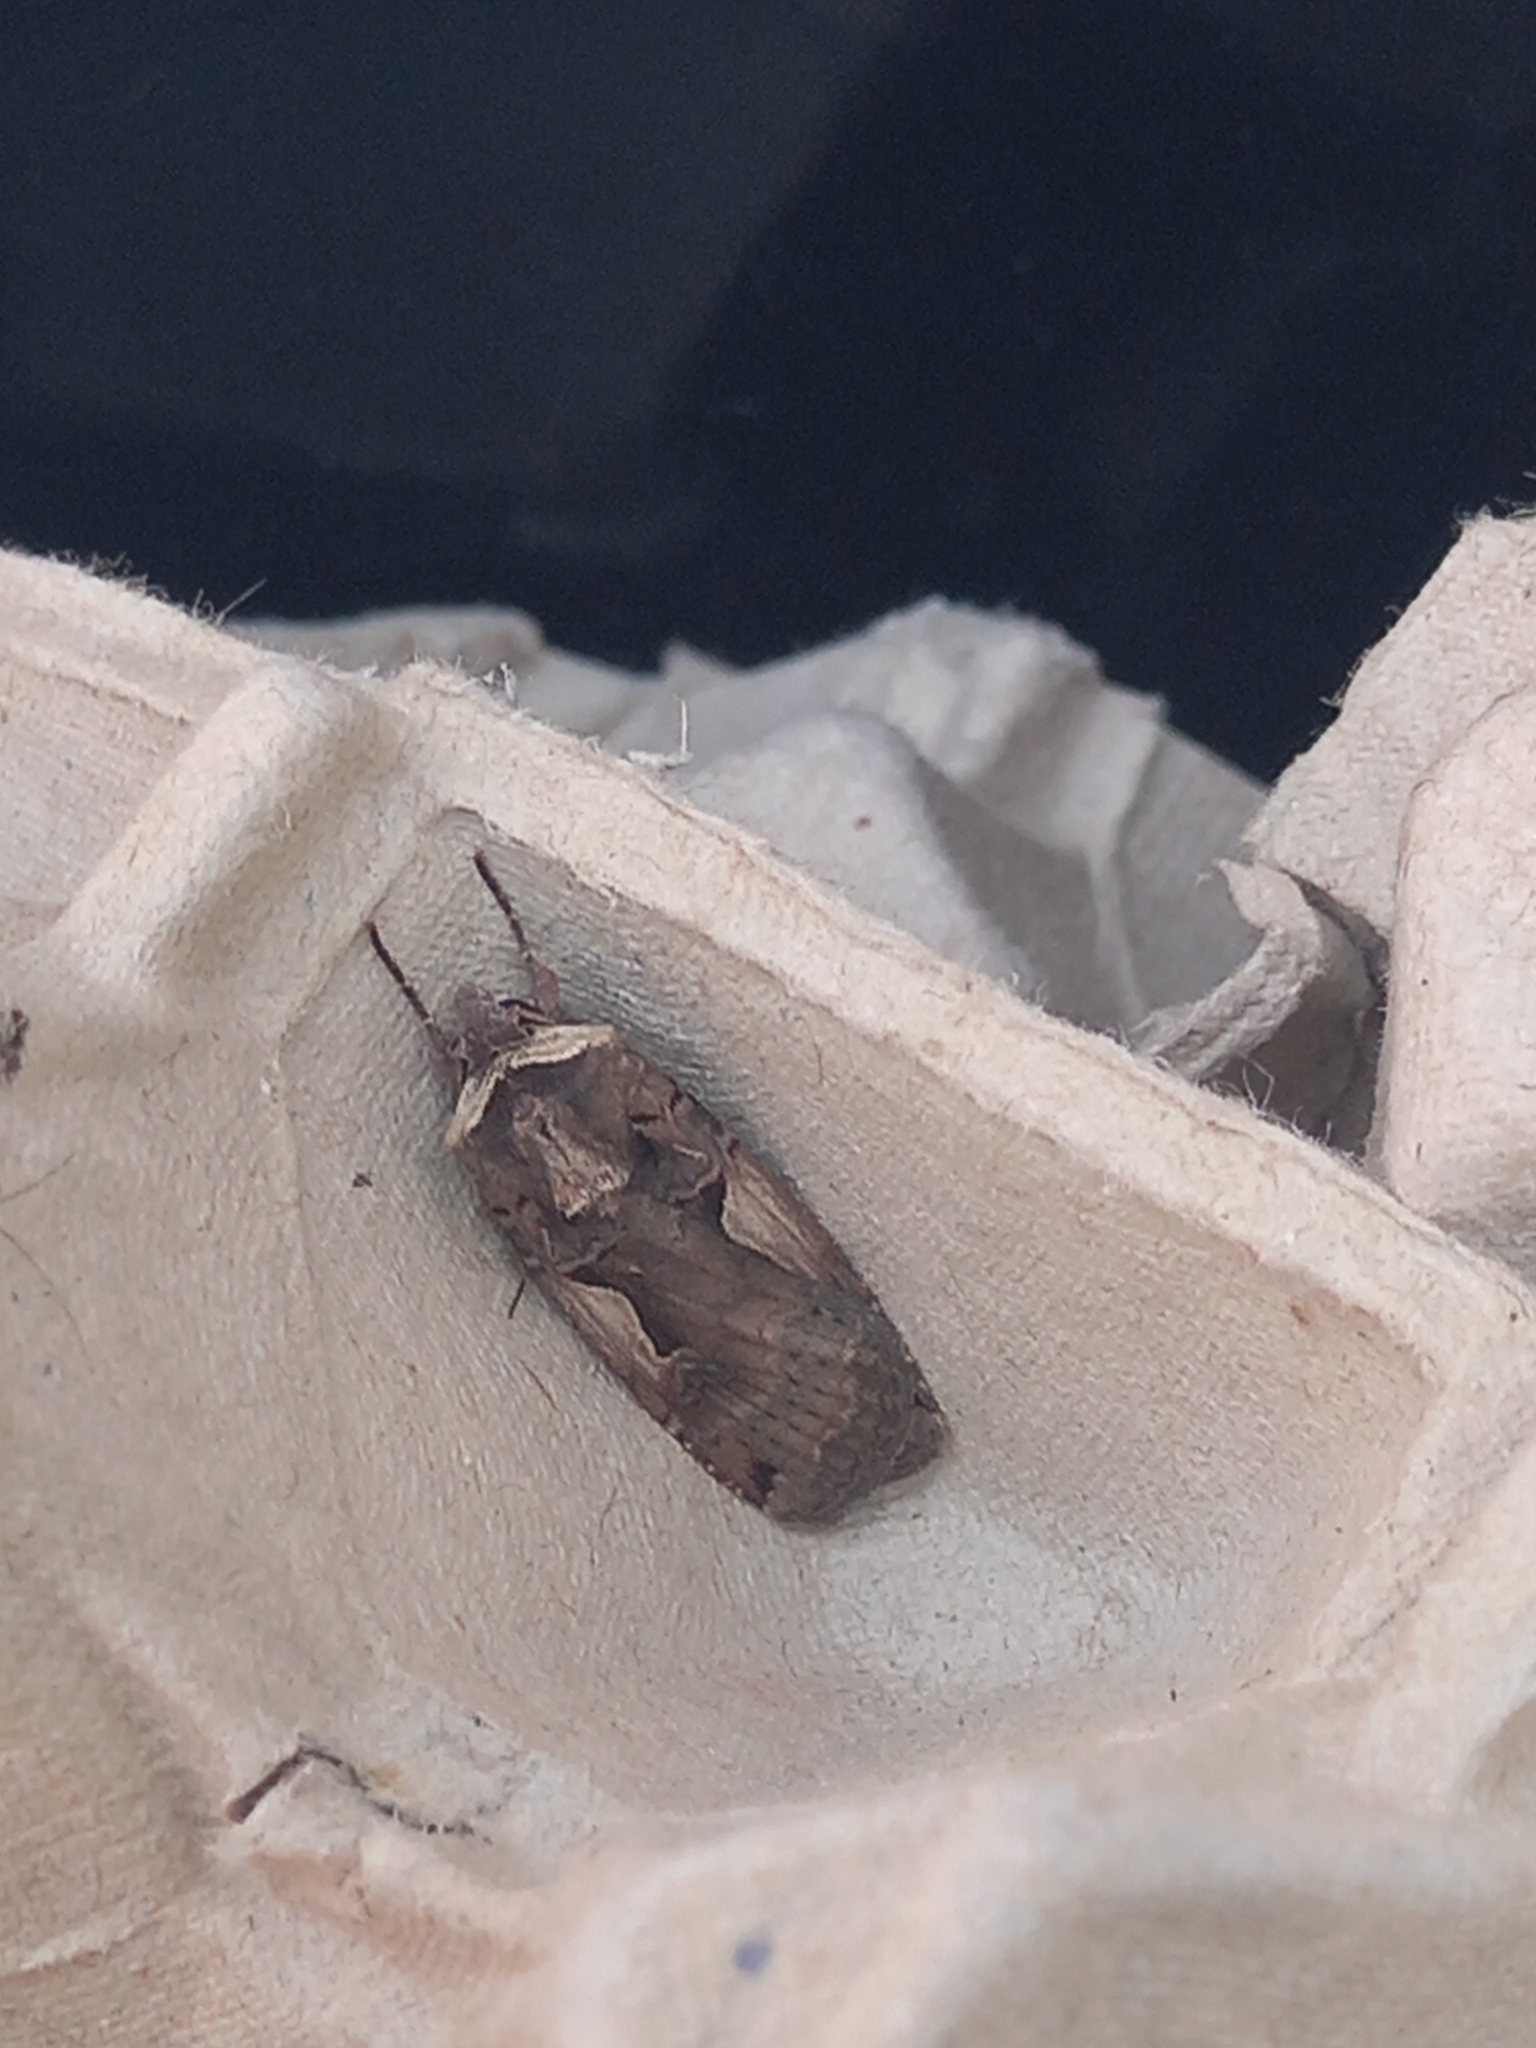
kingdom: Animalia
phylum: Arthropoda
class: Insecta
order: Lepidoptera
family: Noctuidae
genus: Xestia
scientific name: Xestia c-nigrum
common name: Setaceous hebrew character
